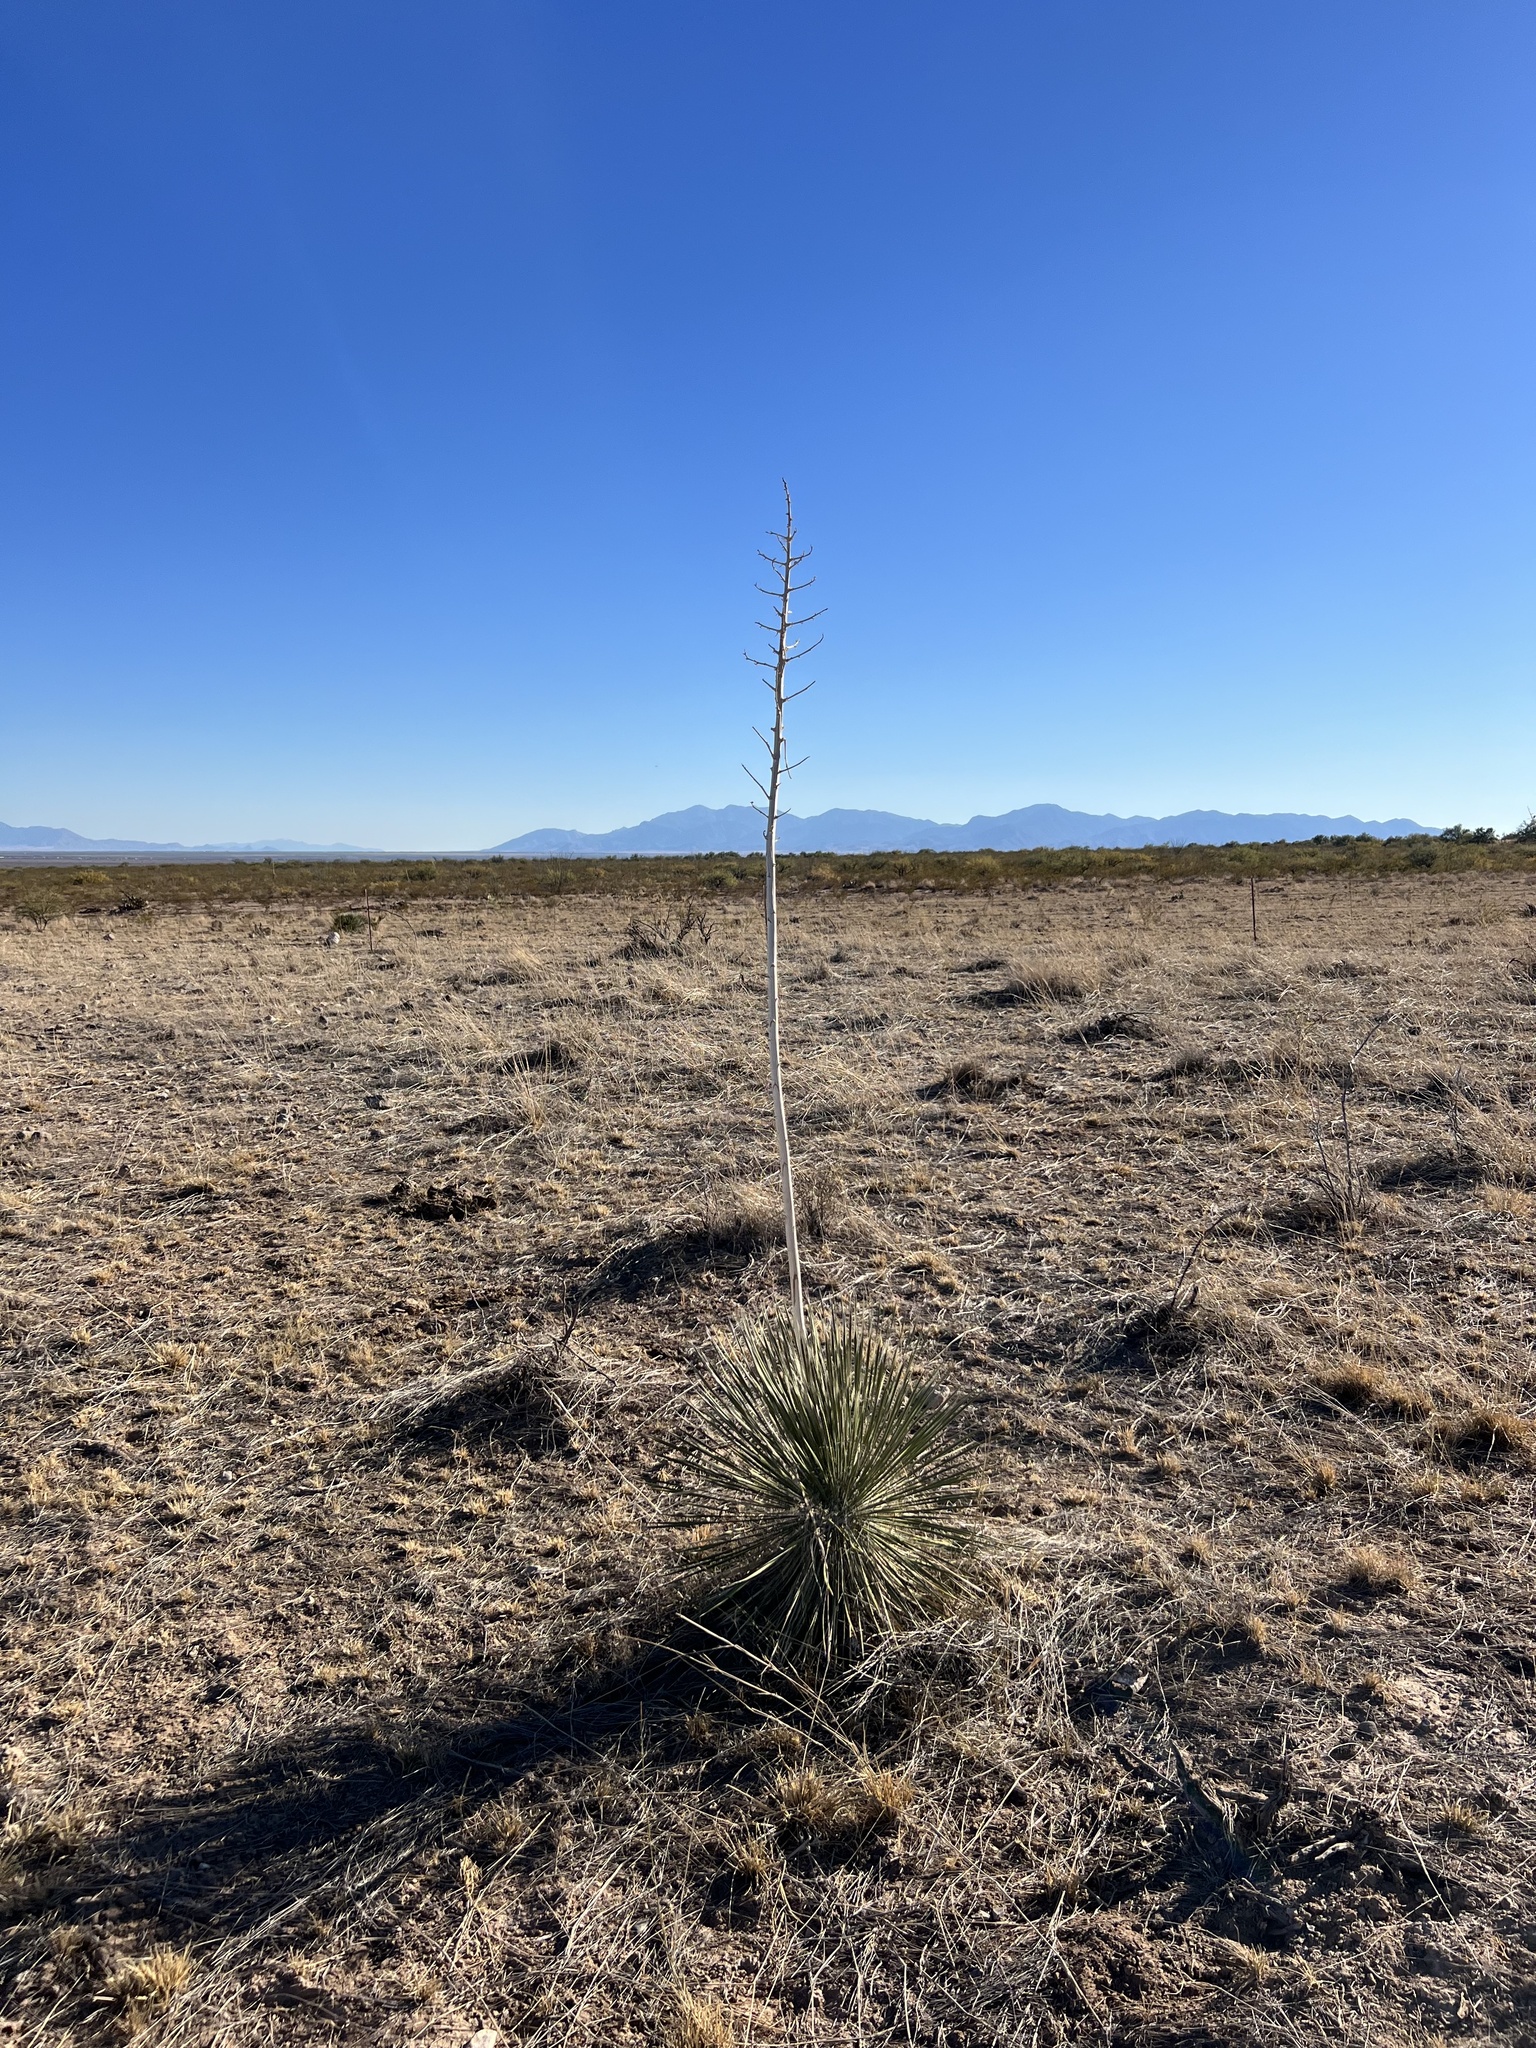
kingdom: Plantae
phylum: Tracheophyta
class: Liliopsida
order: Asparagales
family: Asparagaceae
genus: Yucca
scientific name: Yucca elata
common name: Palmella
